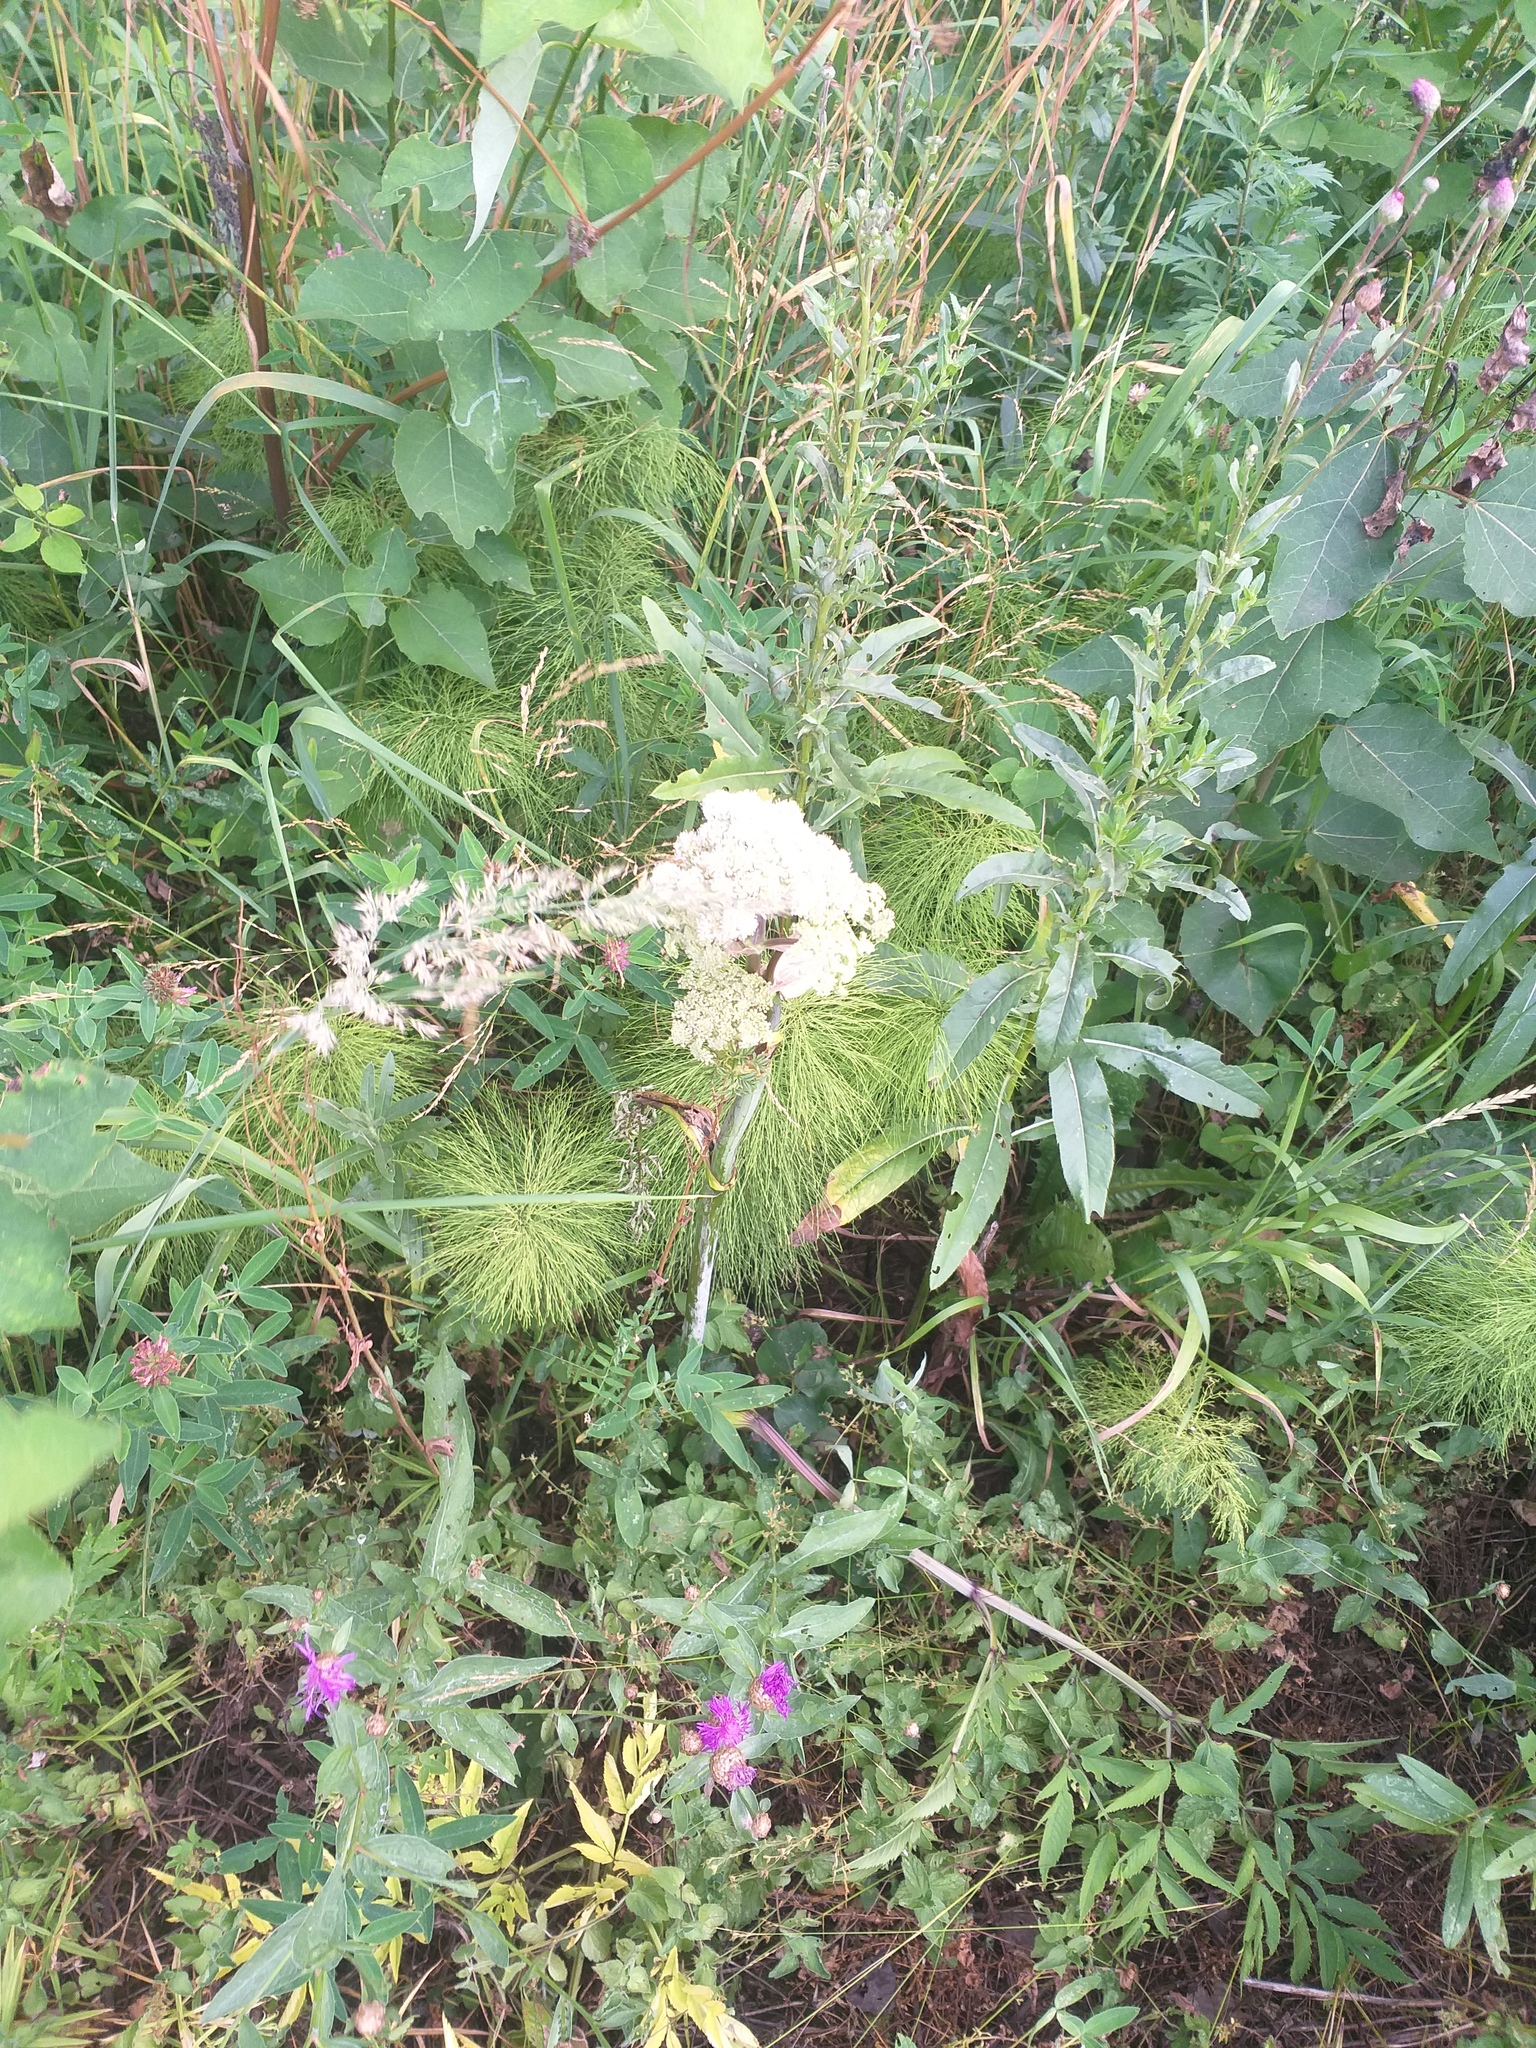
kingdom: Plantae
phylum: Tracheophyta
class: Magnoliopsida
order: Apiales
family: Apiaceae
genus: Angelica
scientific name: Angelica sylvestris
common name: Wild angelica
